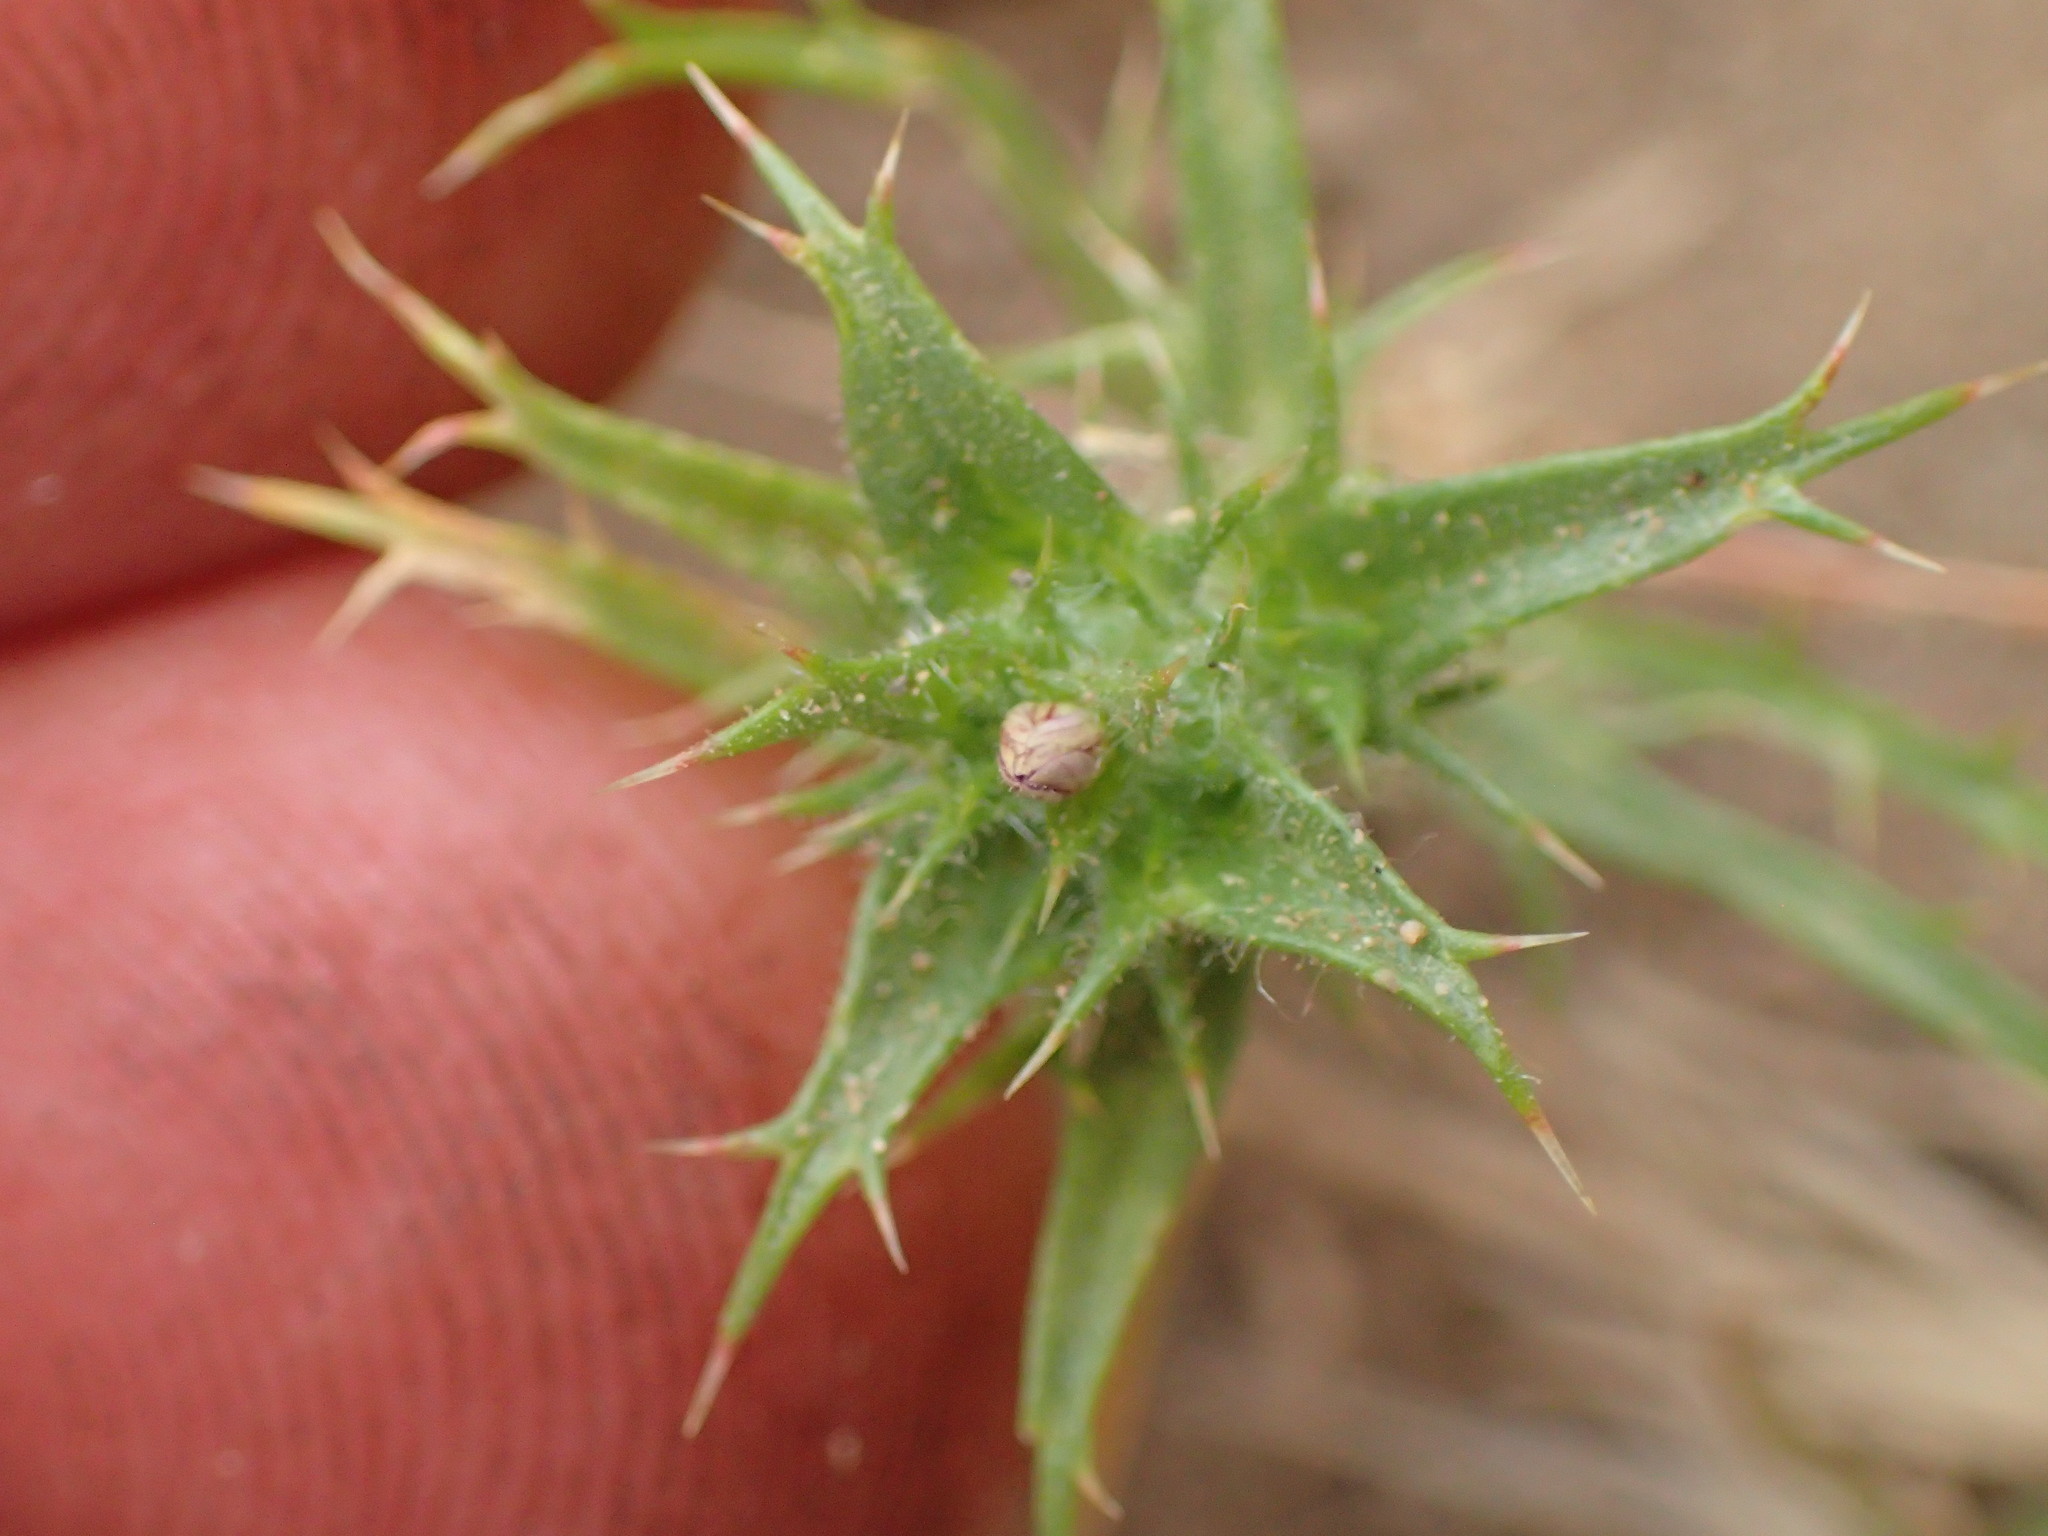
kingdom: Plantae
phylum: Tracheophyta
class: Magnoliopsida
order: Ericales
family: Polemoniaceae
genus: Navarretia
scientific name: Navarretia atractyloides
